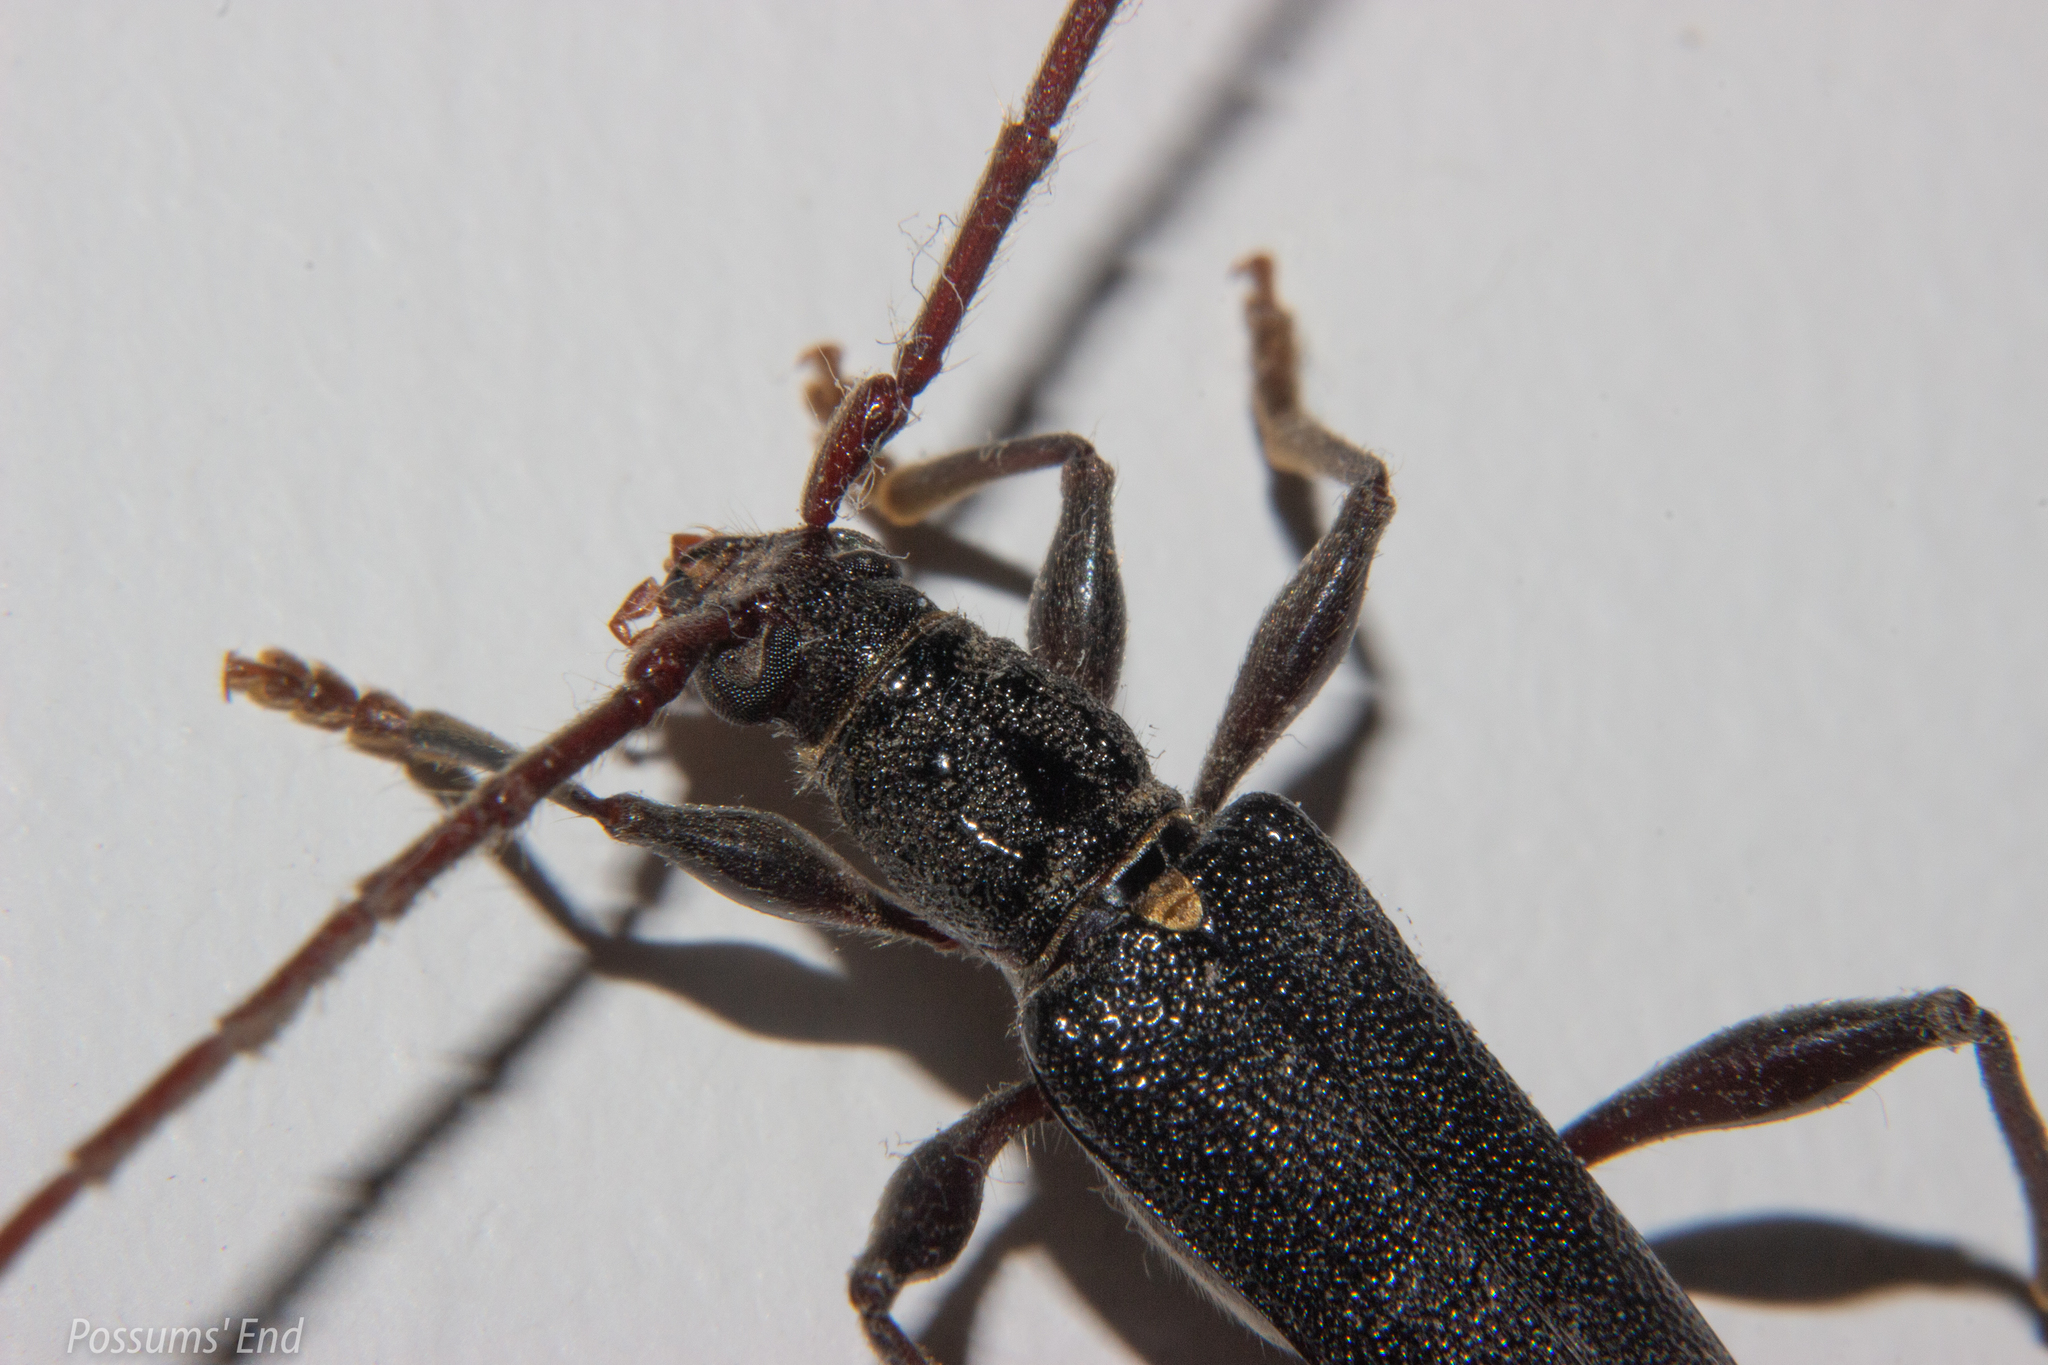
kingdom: Animalia
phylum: Arthropoda
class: Insecta
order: Coleoptera
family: Cerambycidae
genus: Callidiopis
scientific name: Callidiopis scutellaris
